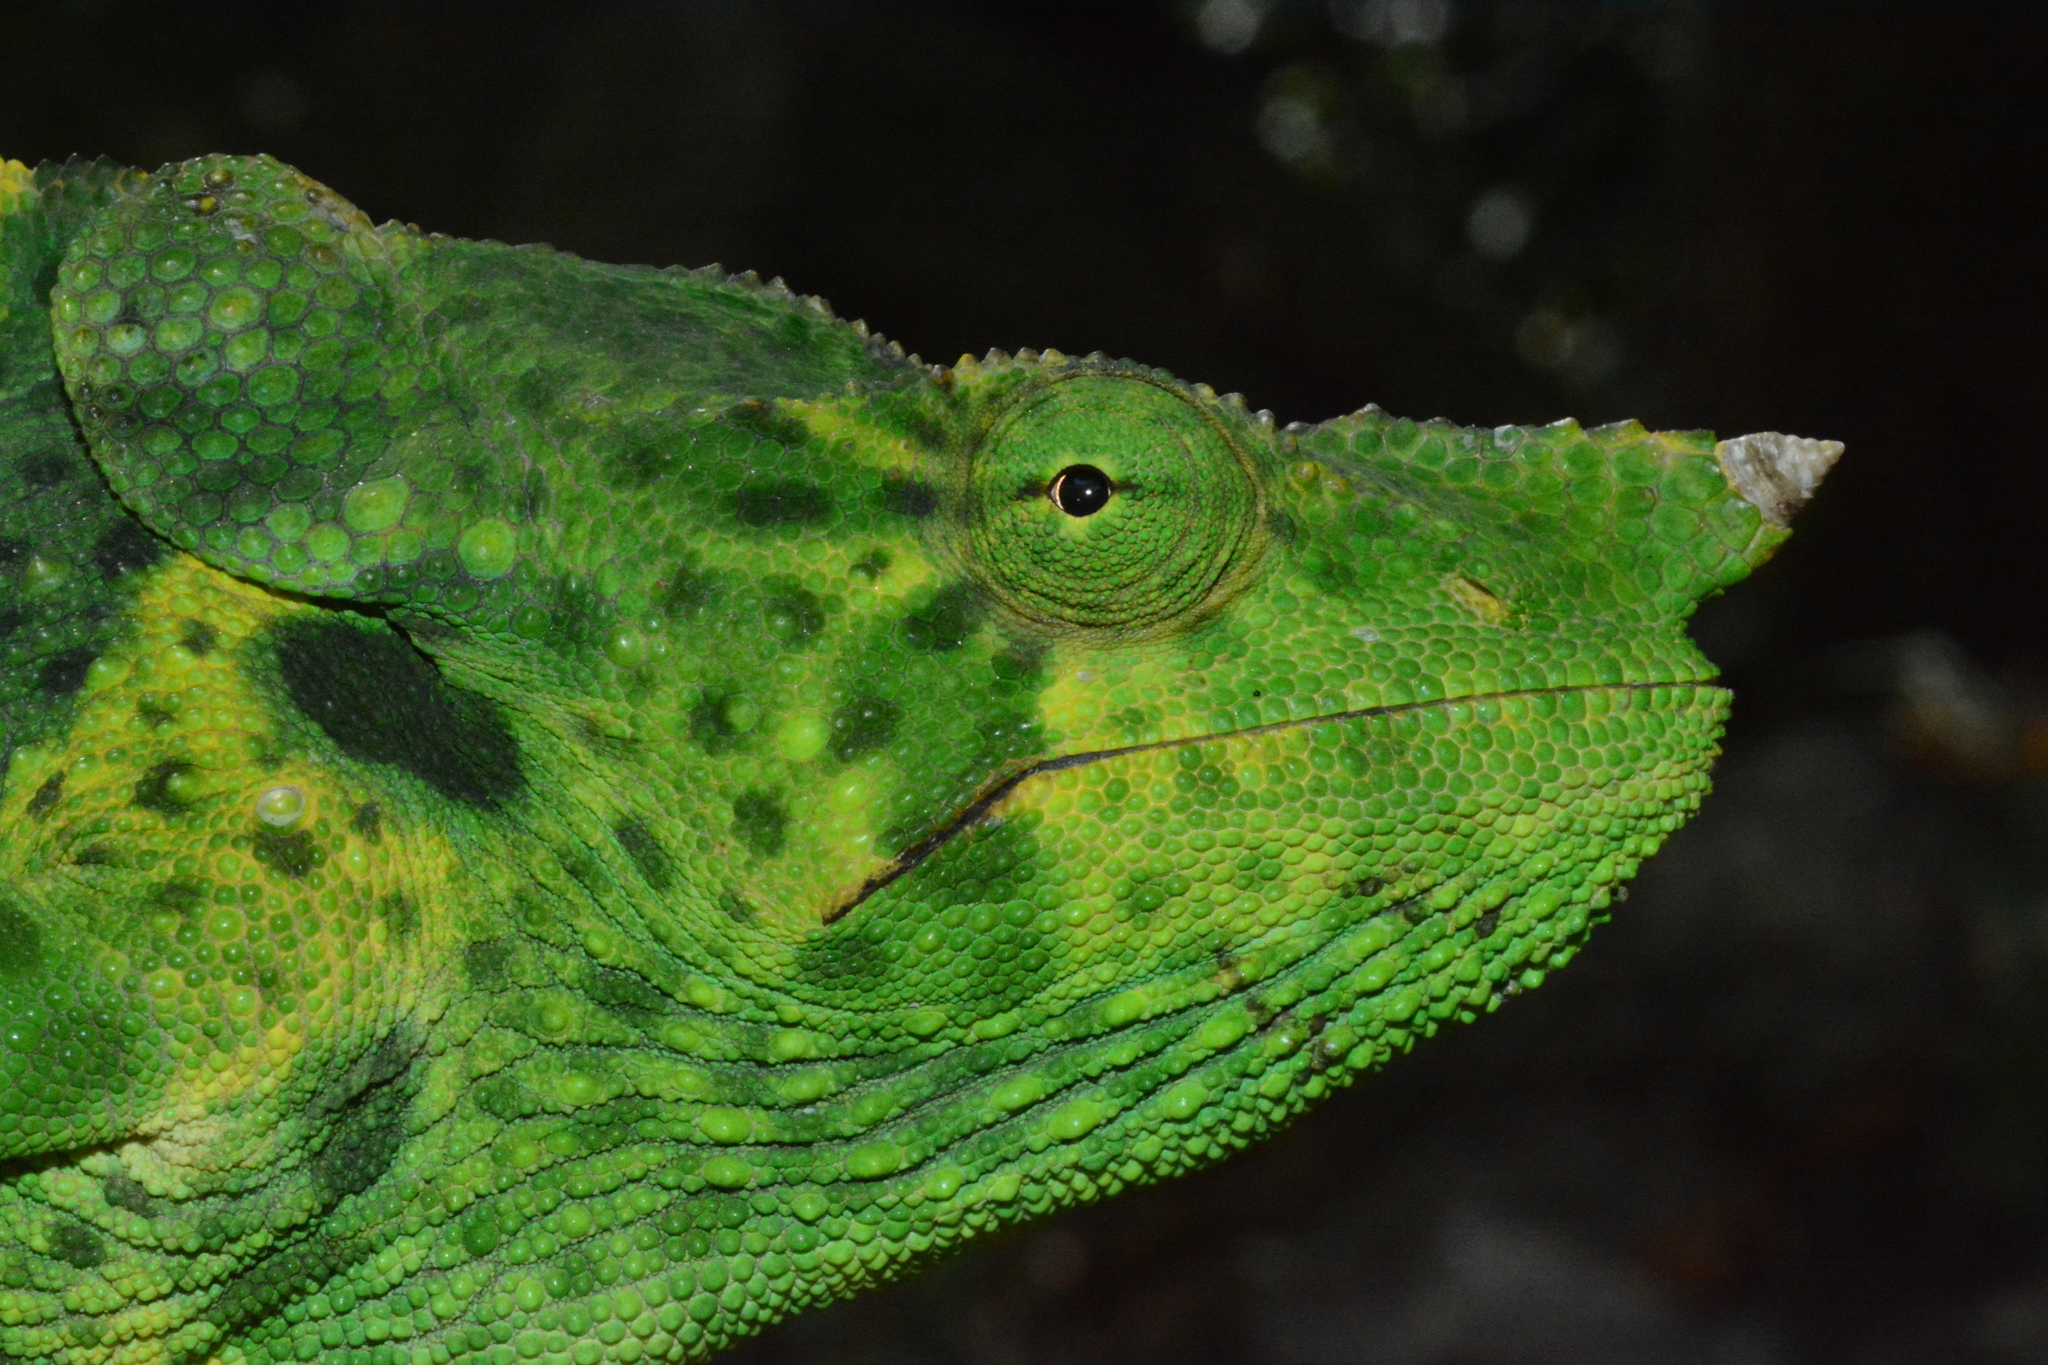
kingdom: Animalia
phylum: Chordata
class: Squamata
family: Chamaeleonidae
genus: Trioceros
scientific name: Trioceros melleri
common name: Meller's chameleon
